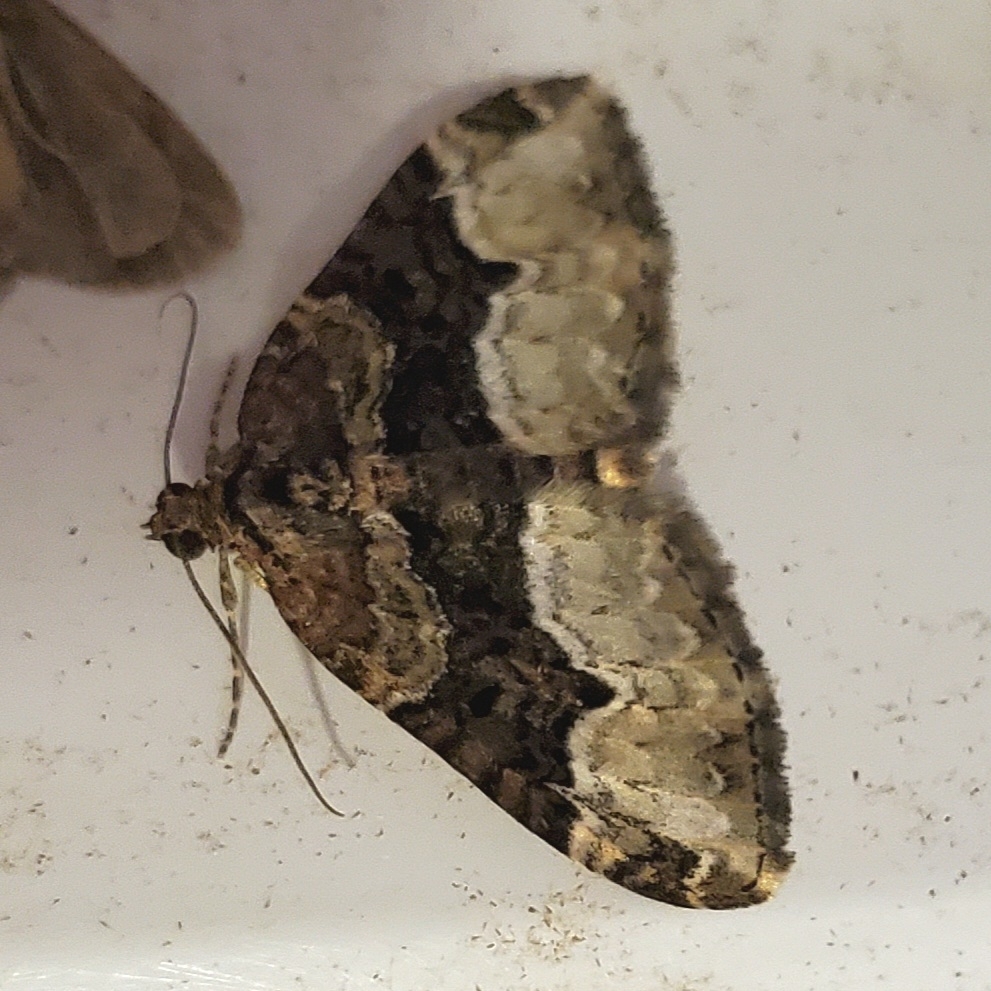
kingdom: Animalia
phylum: Arthropoda
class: Insecta
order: Lepidoptera
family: Geometridae
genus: Euphyia
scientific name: Euphyia intermediata
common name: Sharp-angled carpet
